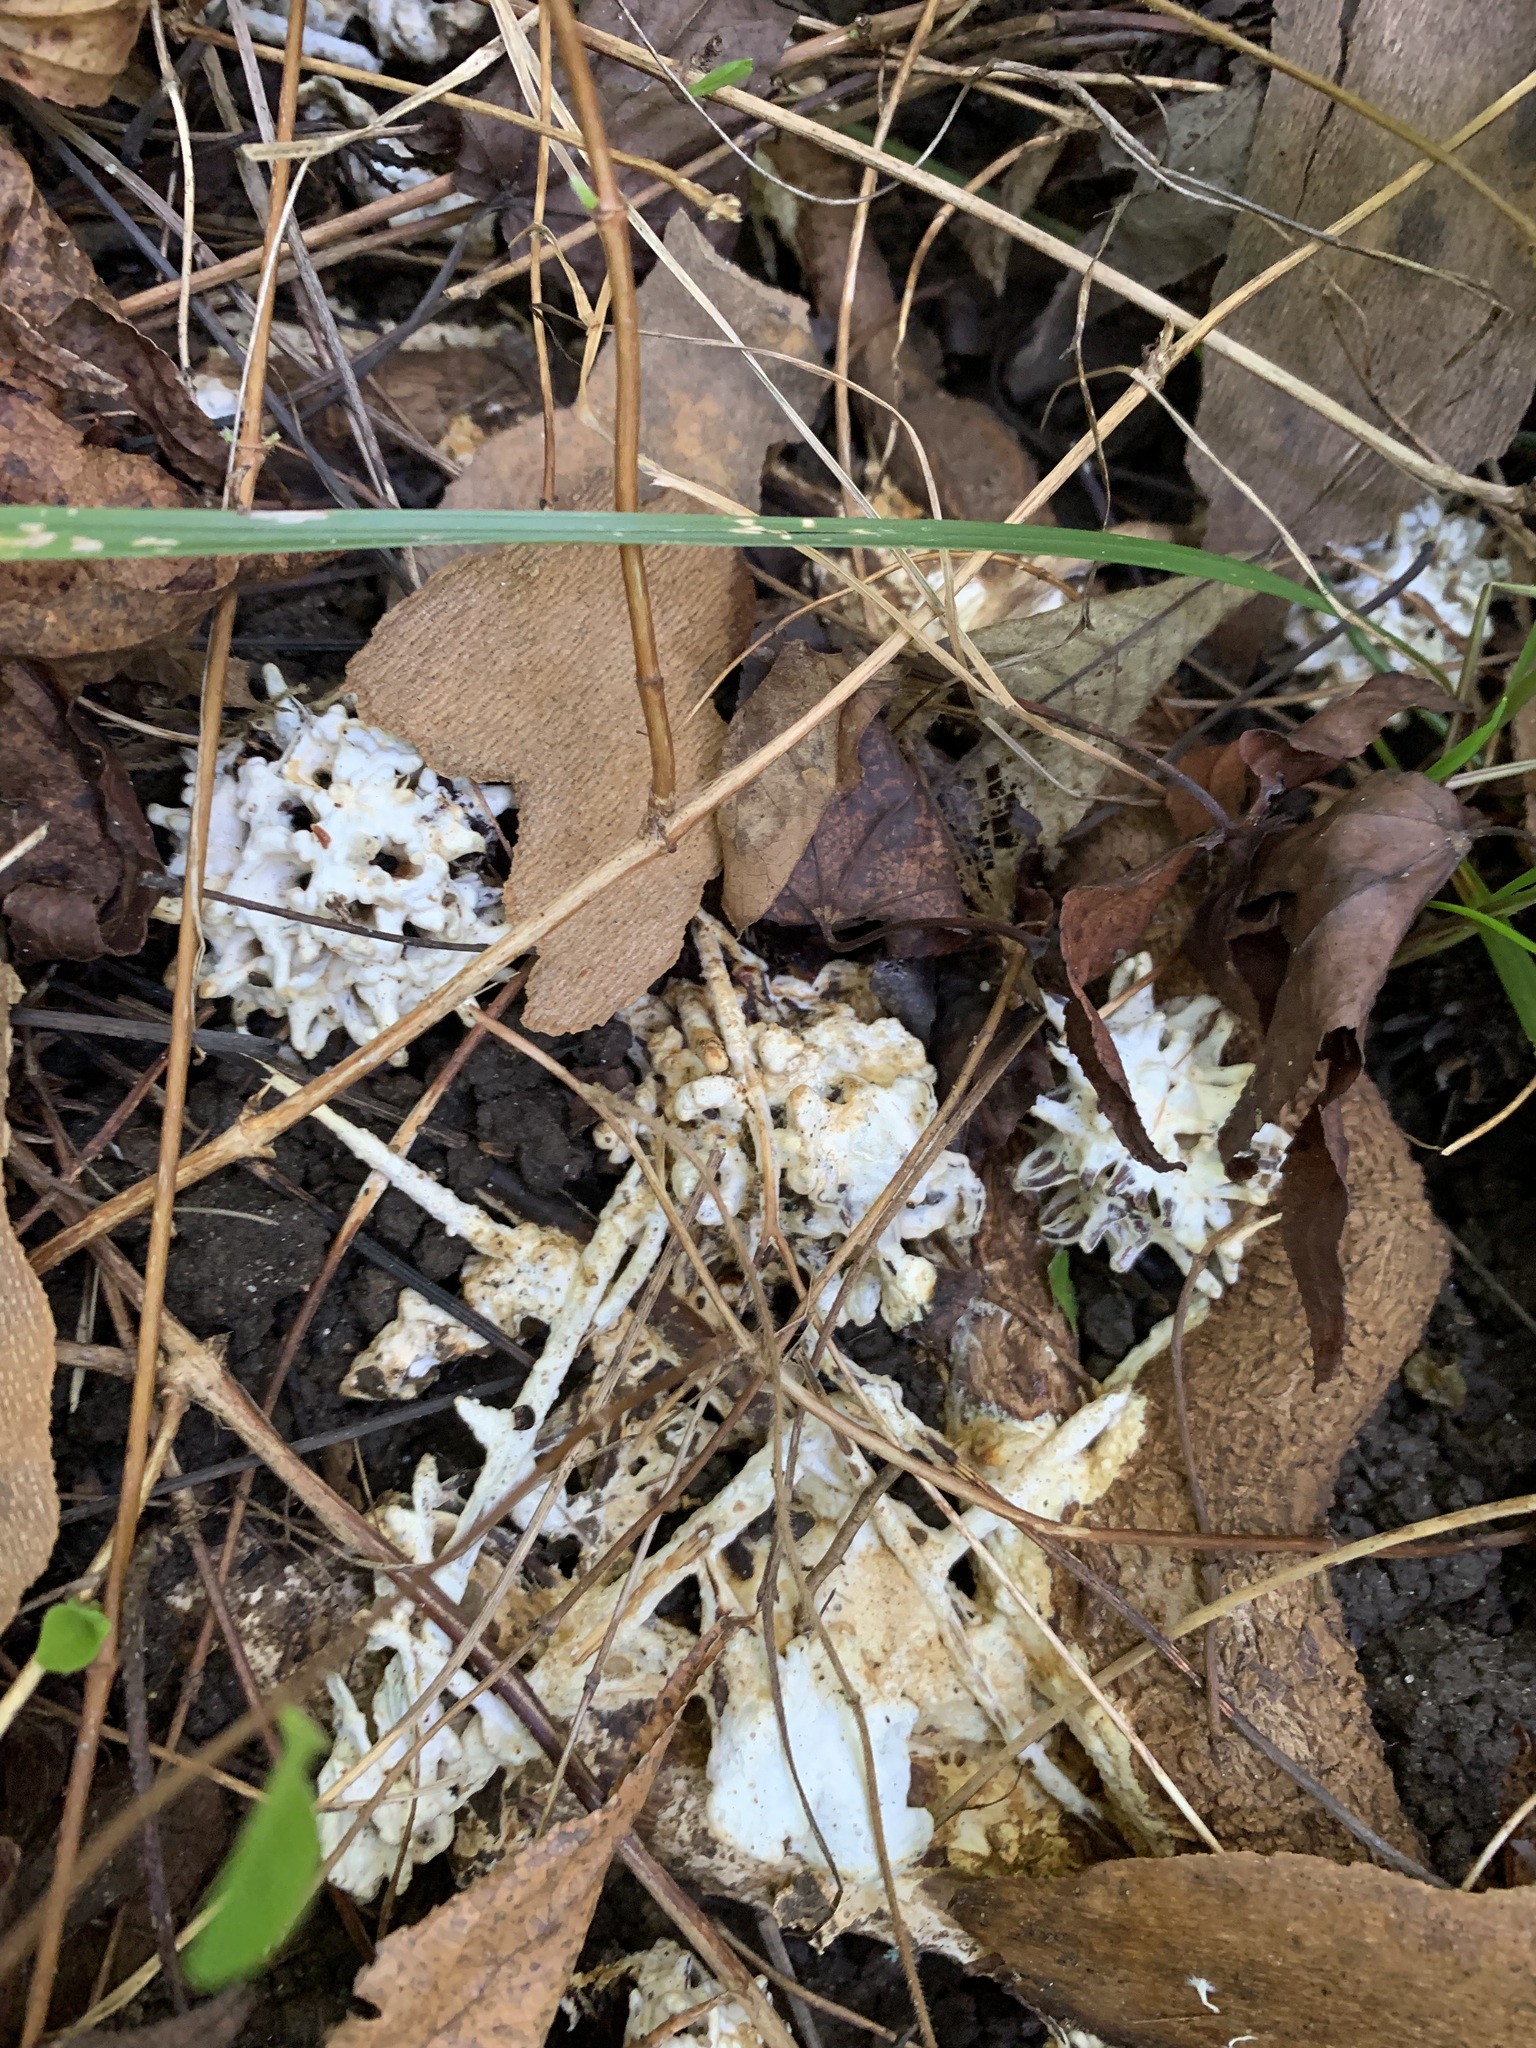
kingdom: Fungi
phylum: Basidiomycota
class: Agaricomycetes
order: Sebacinales
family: Sebacinaceae
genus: Sebacina
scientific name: Sebacina incrustans
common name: Enveloping crust
